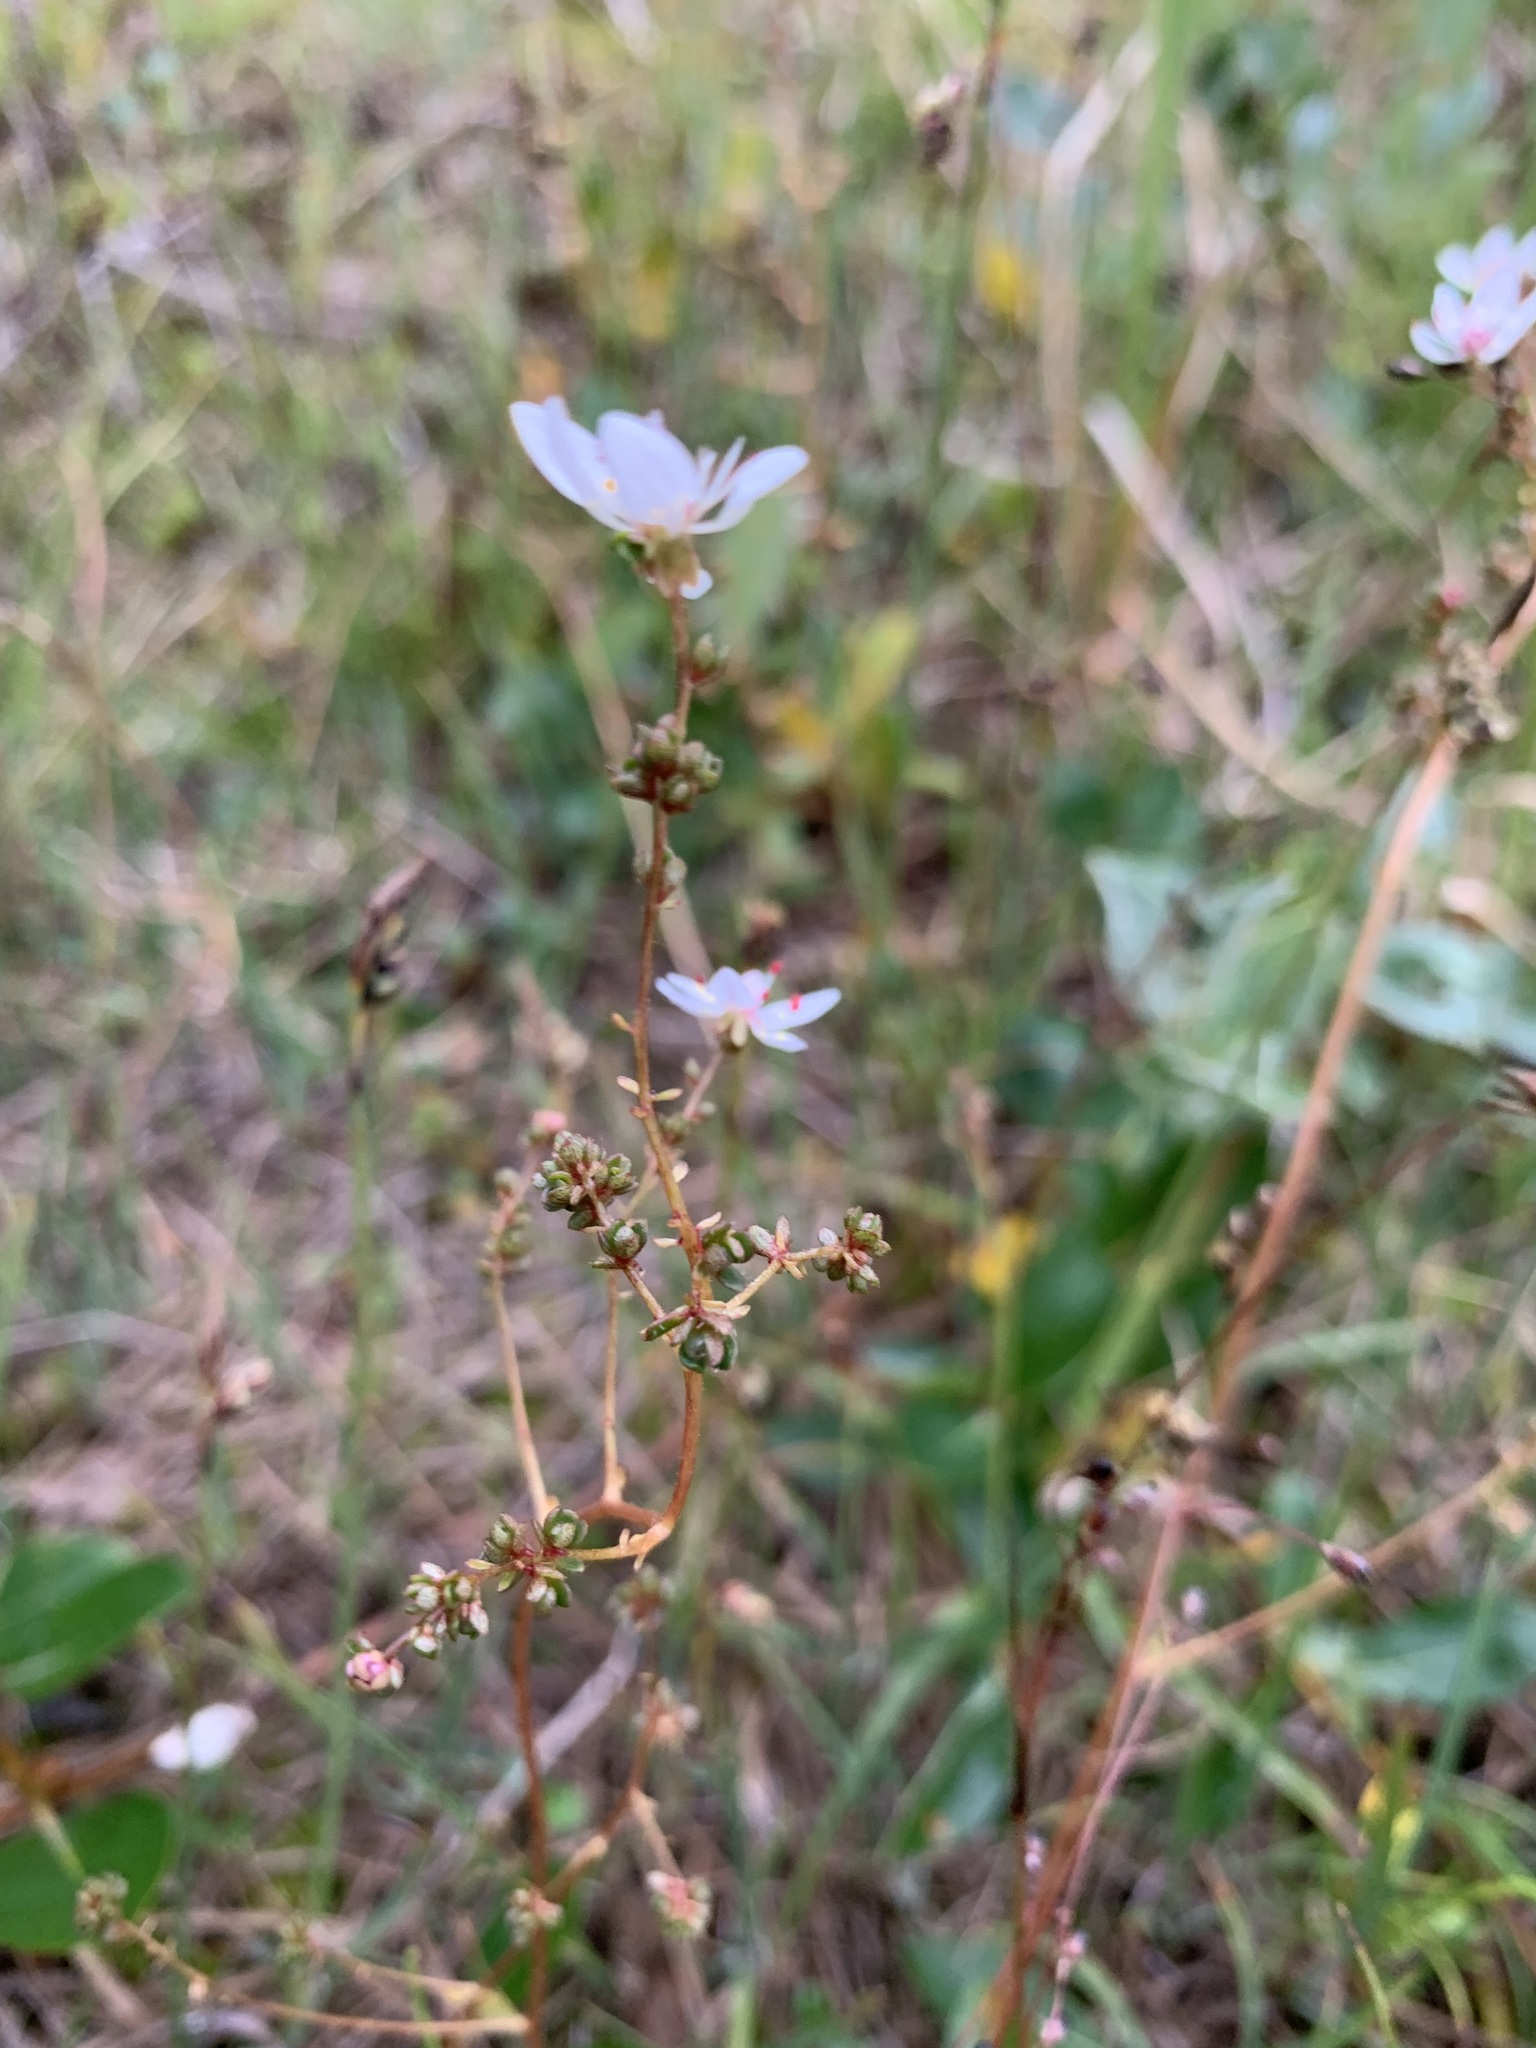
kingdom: Plantae
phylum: Tracheophyta
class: Magnoliopsida
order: Saxifragales
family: Saxifragaceae
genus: Micranthes
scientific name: Micranthes foliolosa
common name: Leafystem saxifrage
